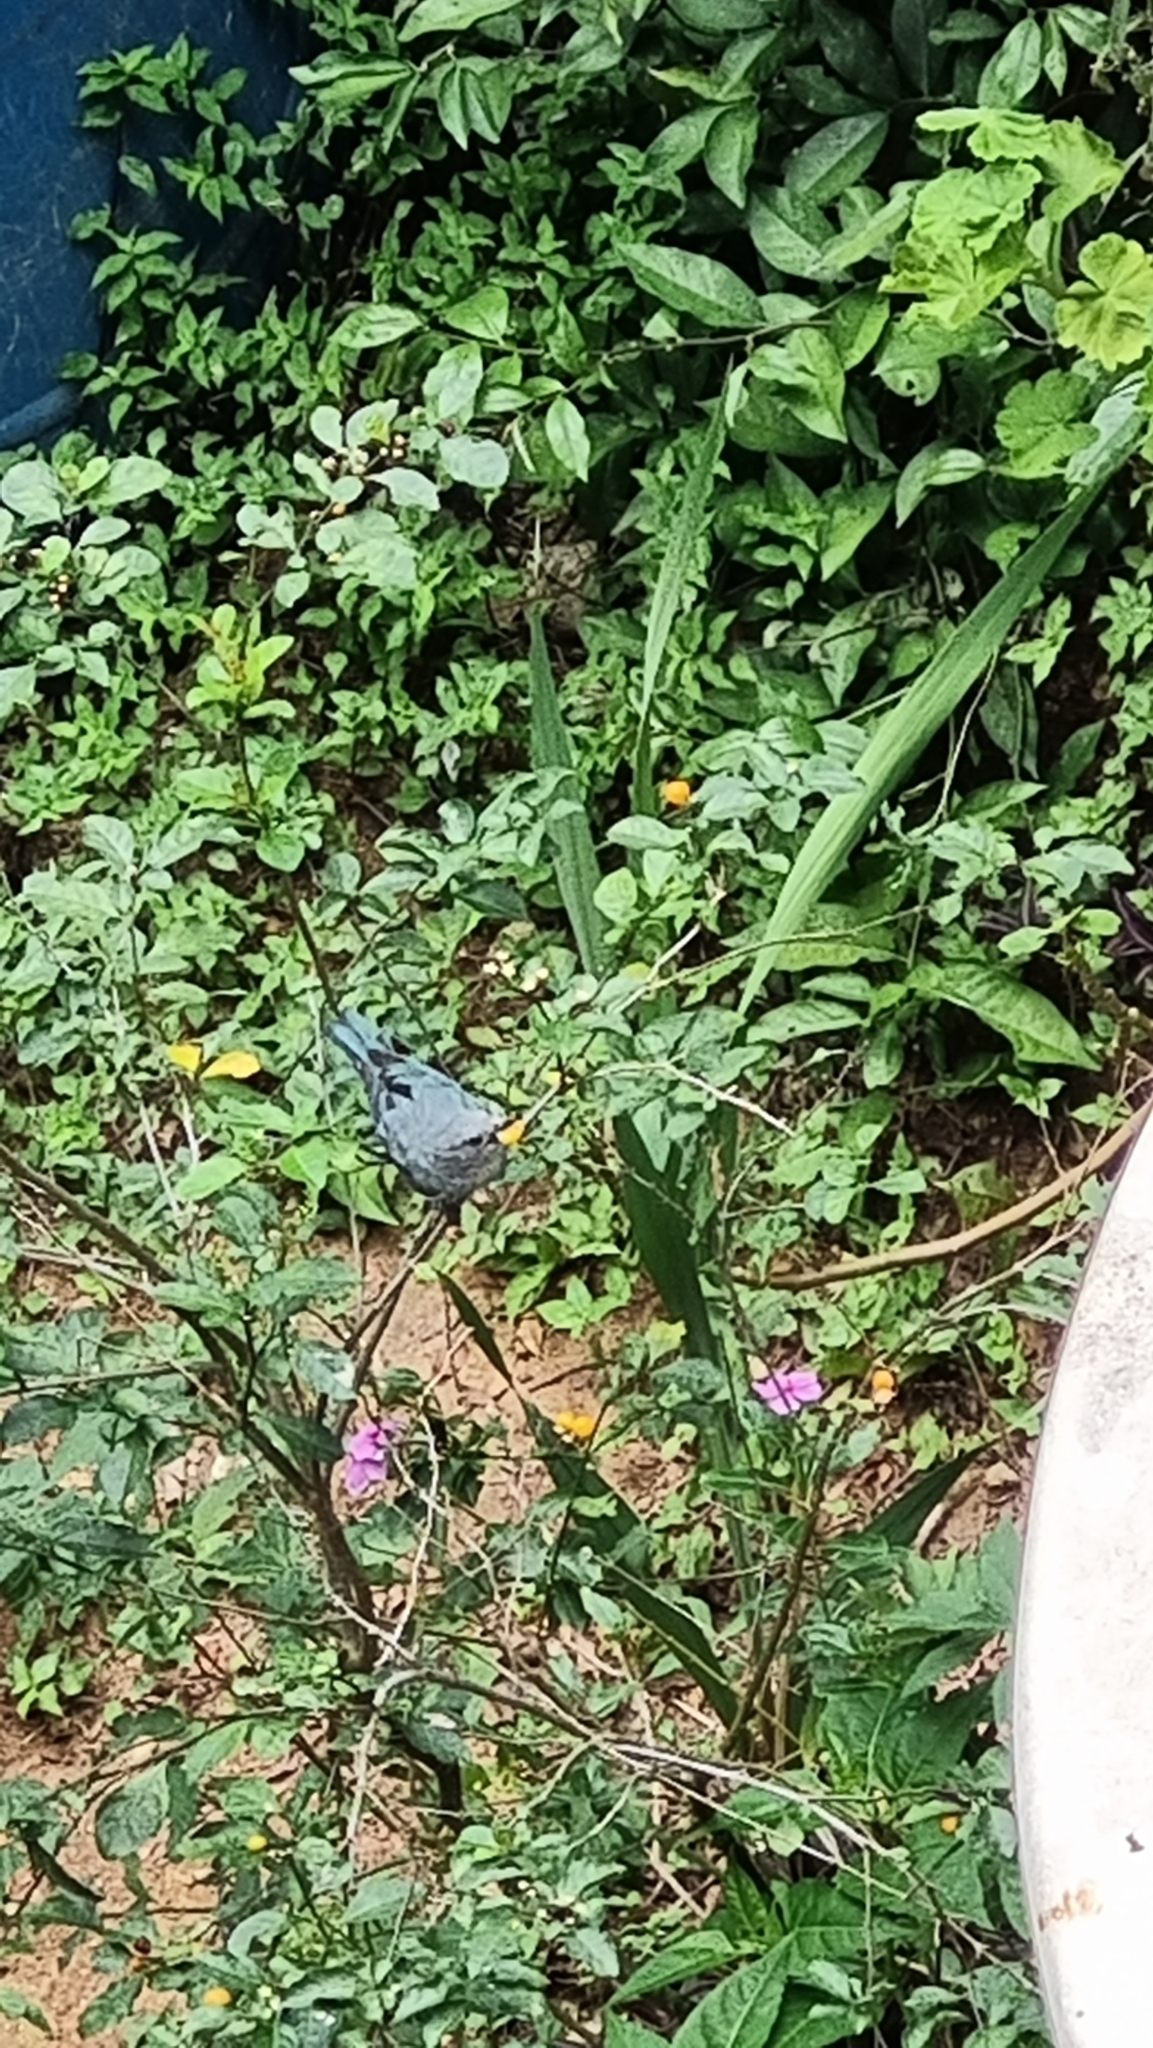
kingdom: Animalia
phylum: Chordata
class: Aves
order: Passeriformes
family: Thraupidae
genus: Thraupis
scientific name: Thraupis sayaca
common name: Sayaca tanager
